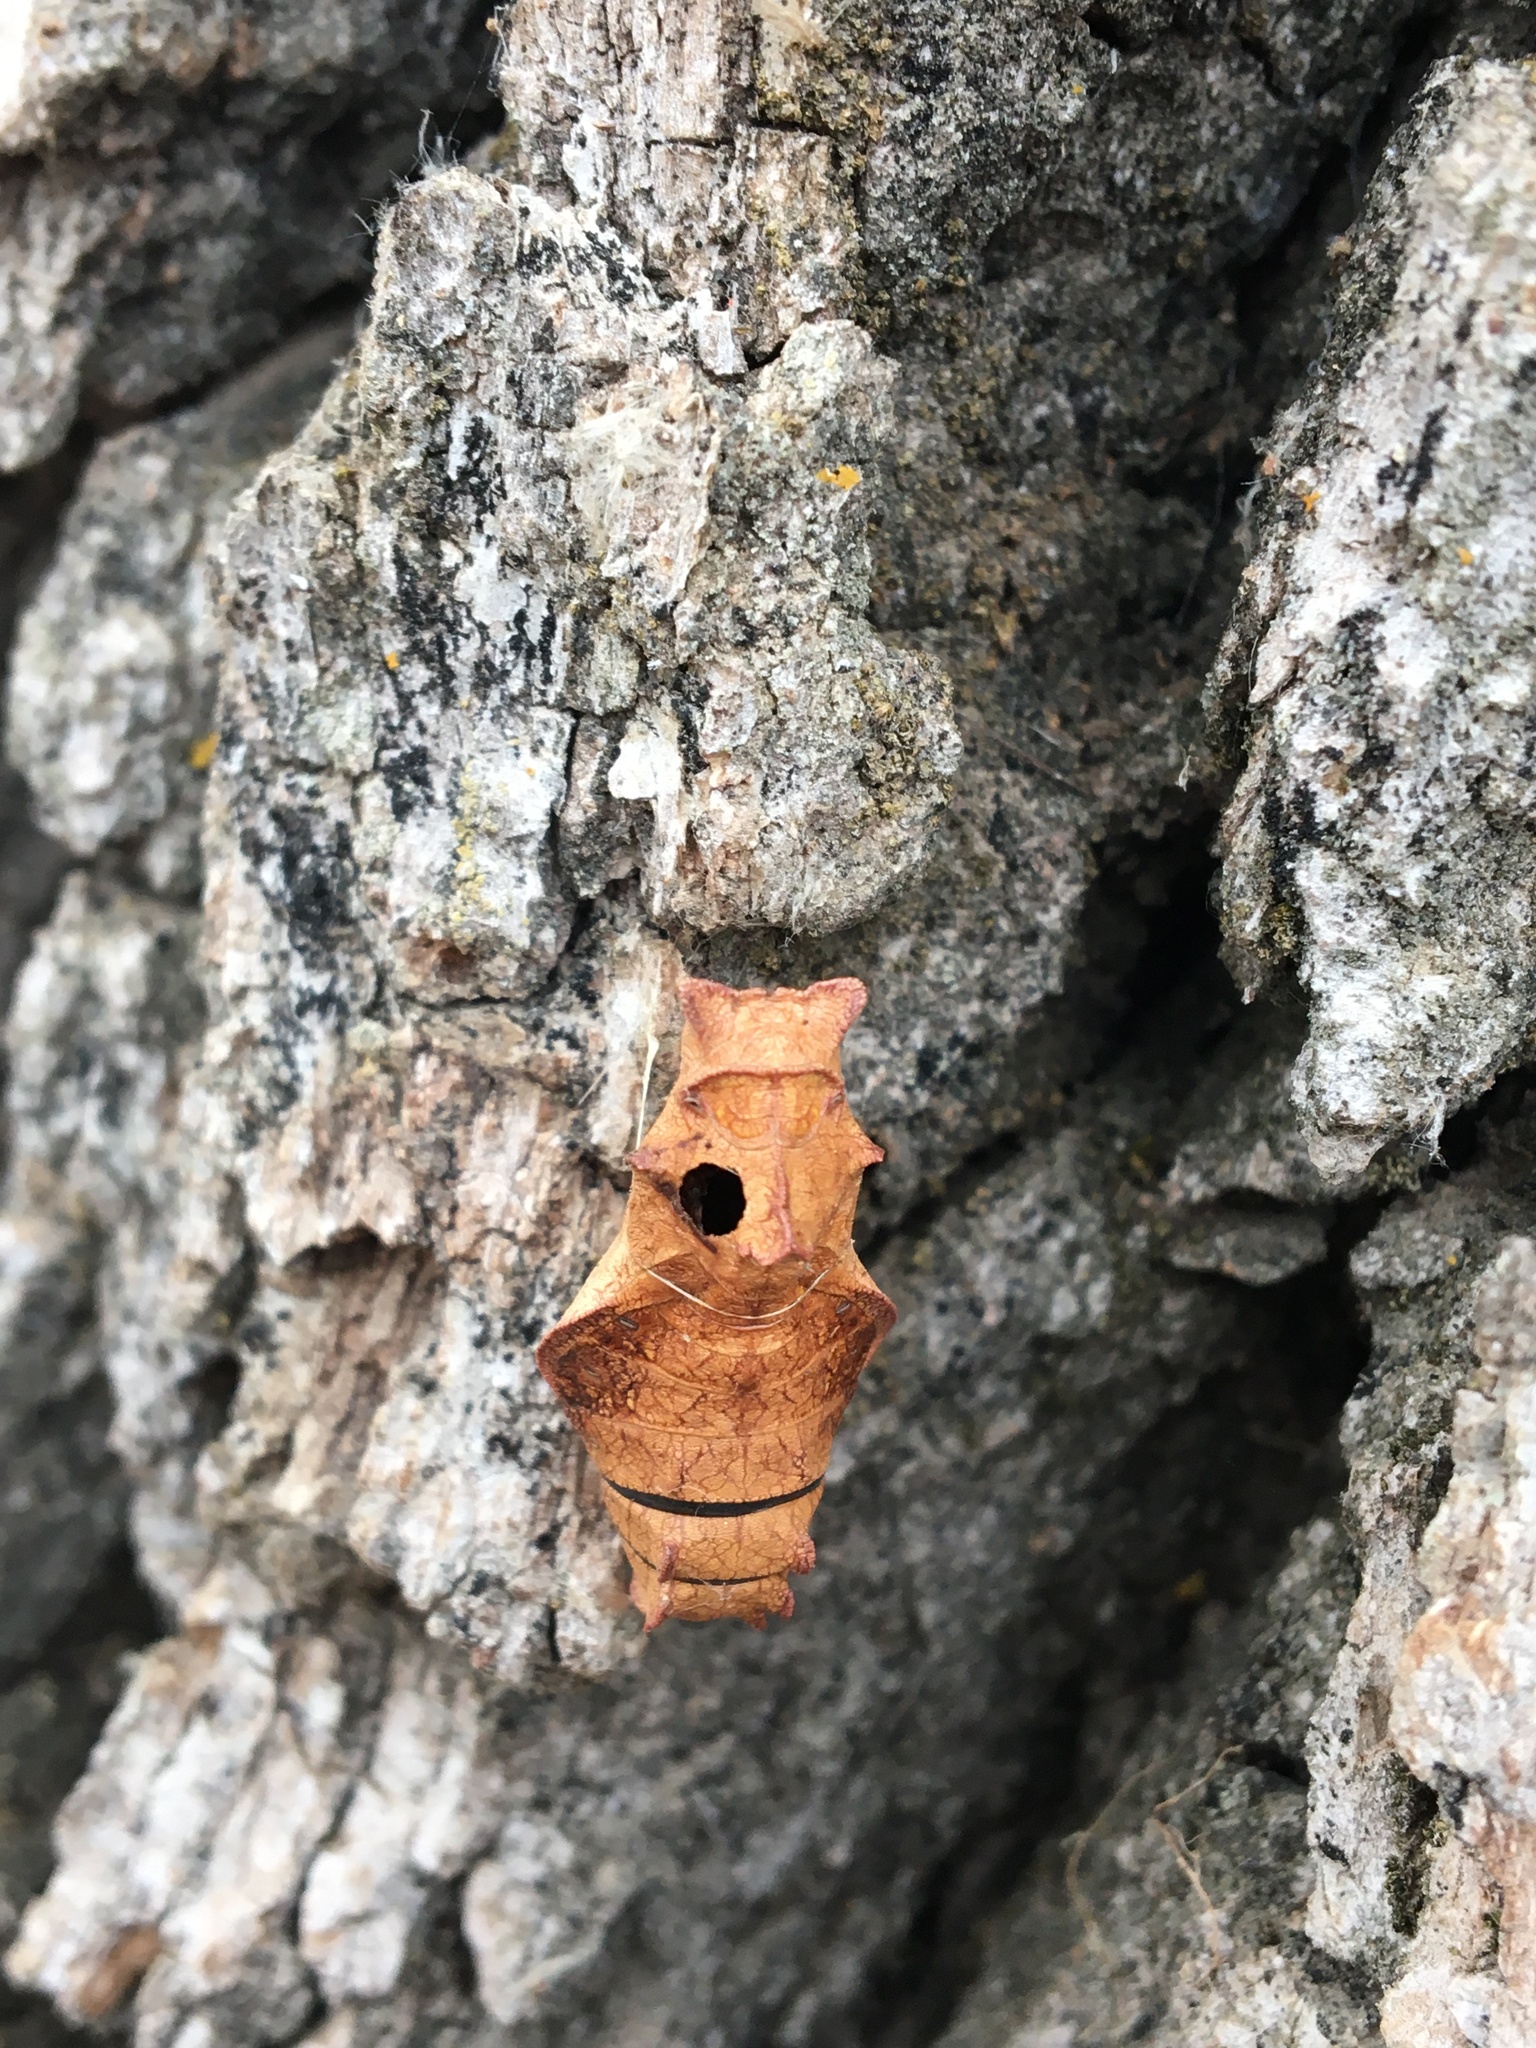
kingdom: Animalia
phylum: Arthropoda
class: Insecta
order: Lepidoptera
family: Papilionidae
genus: Battus
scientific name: Battus philenor
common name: Pipevine swallowtail
